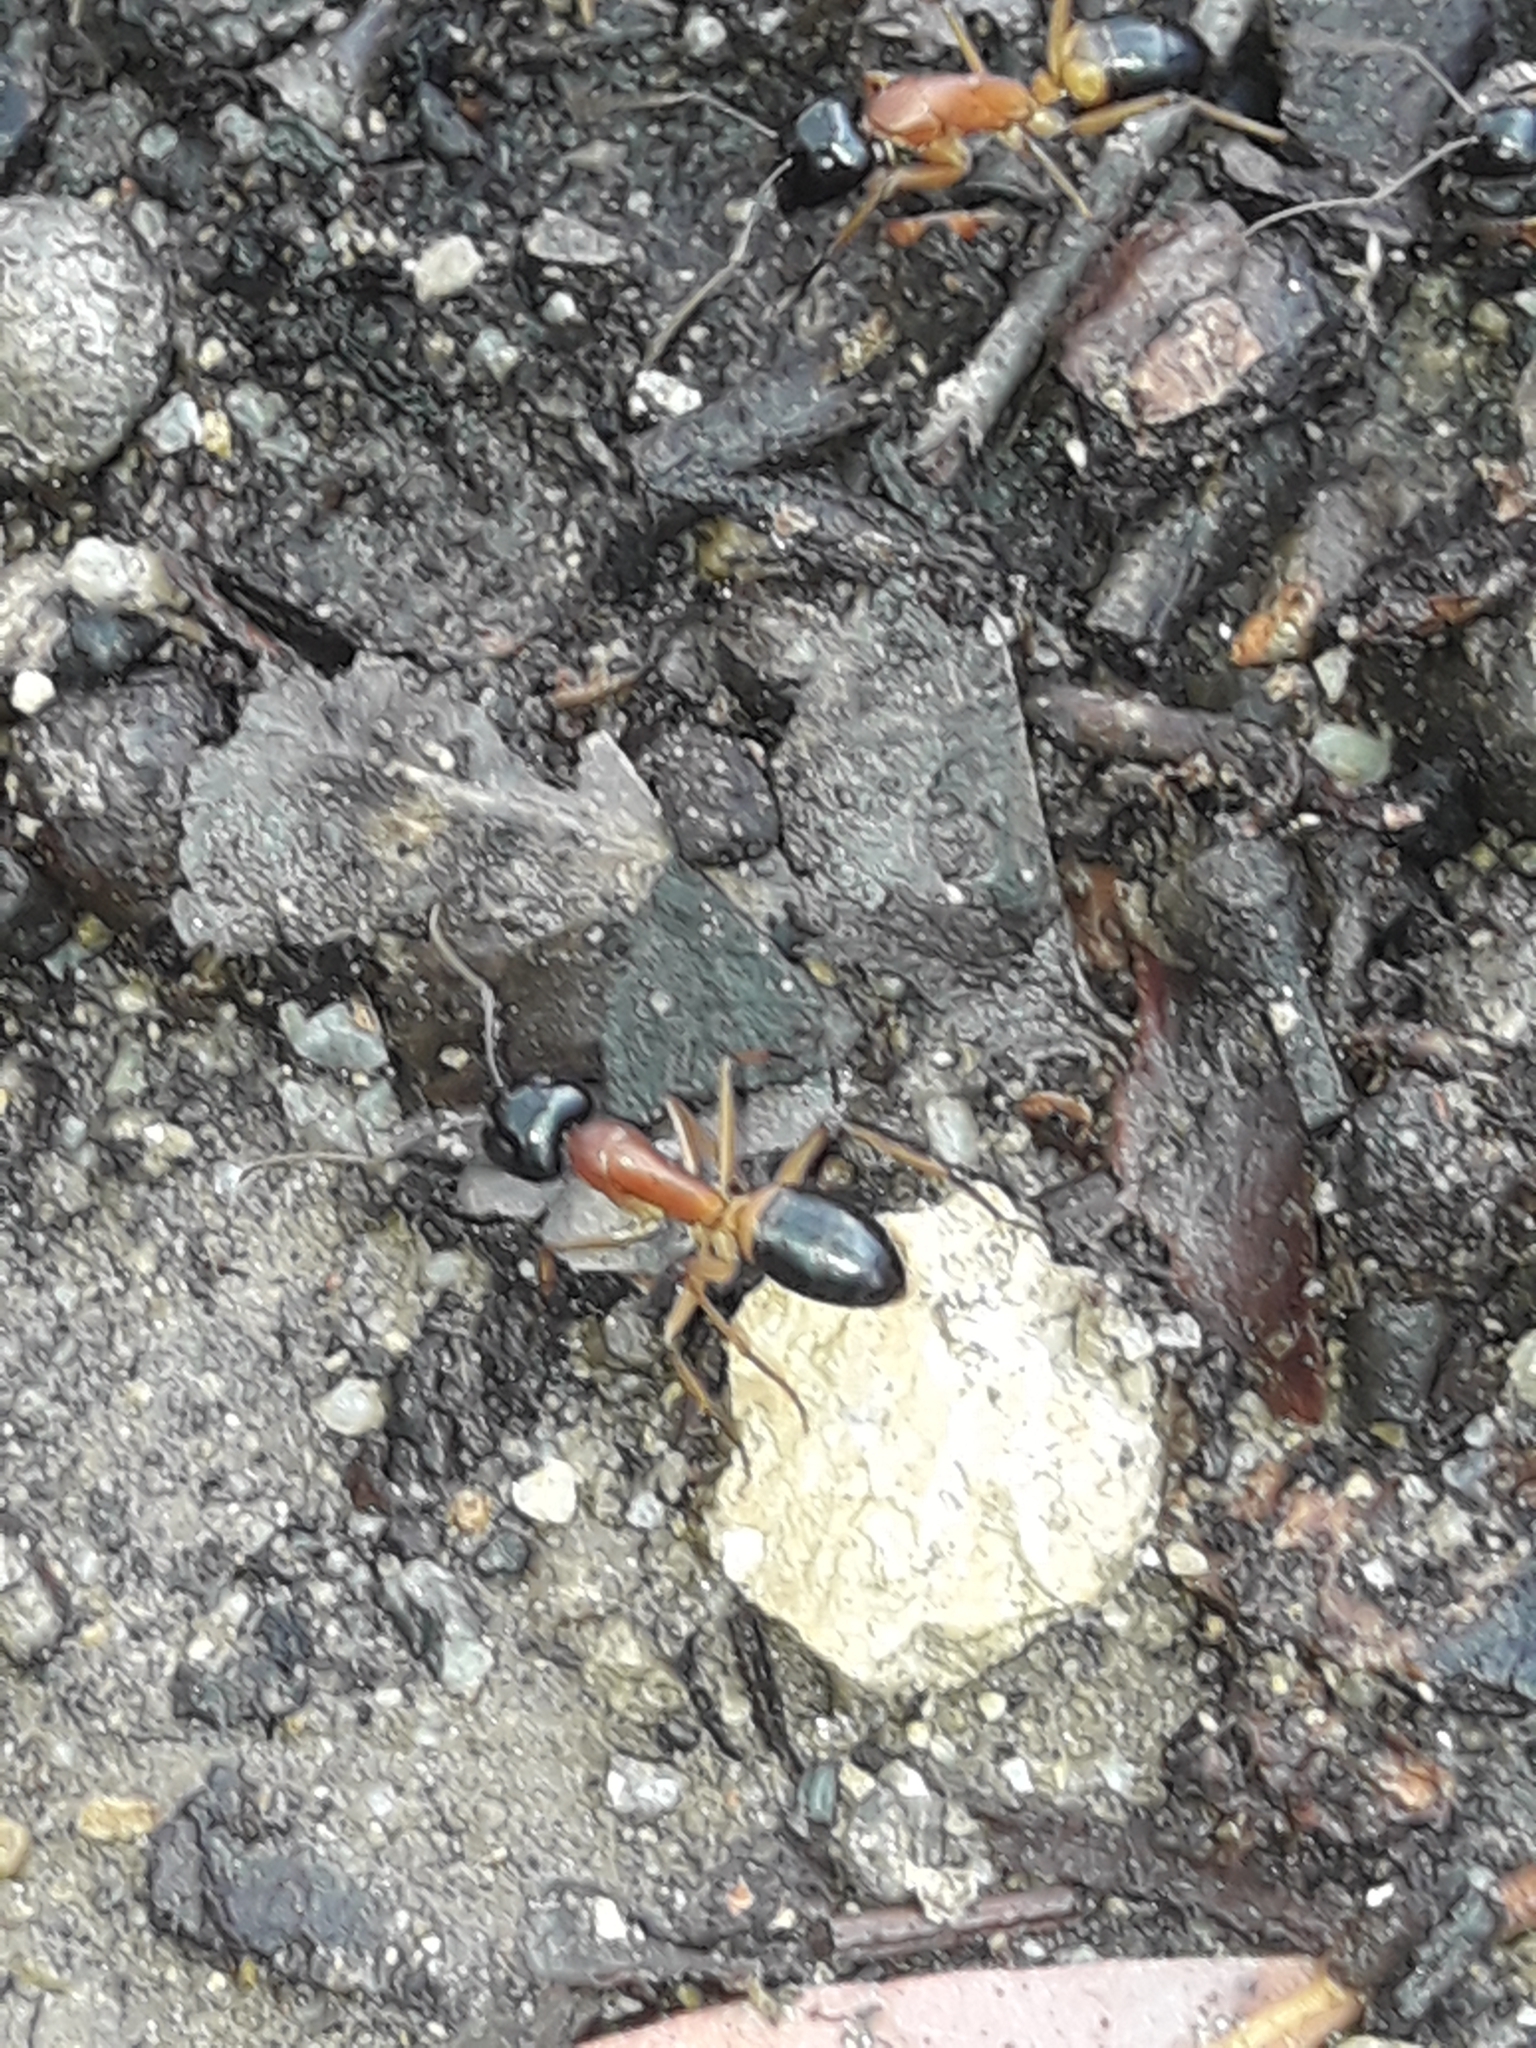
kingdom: Animalia
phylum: Arthropoda
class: Insecta
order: Hymenoptera
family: Formicidae
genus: Camponotus
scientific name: Camponotus consobrinus
